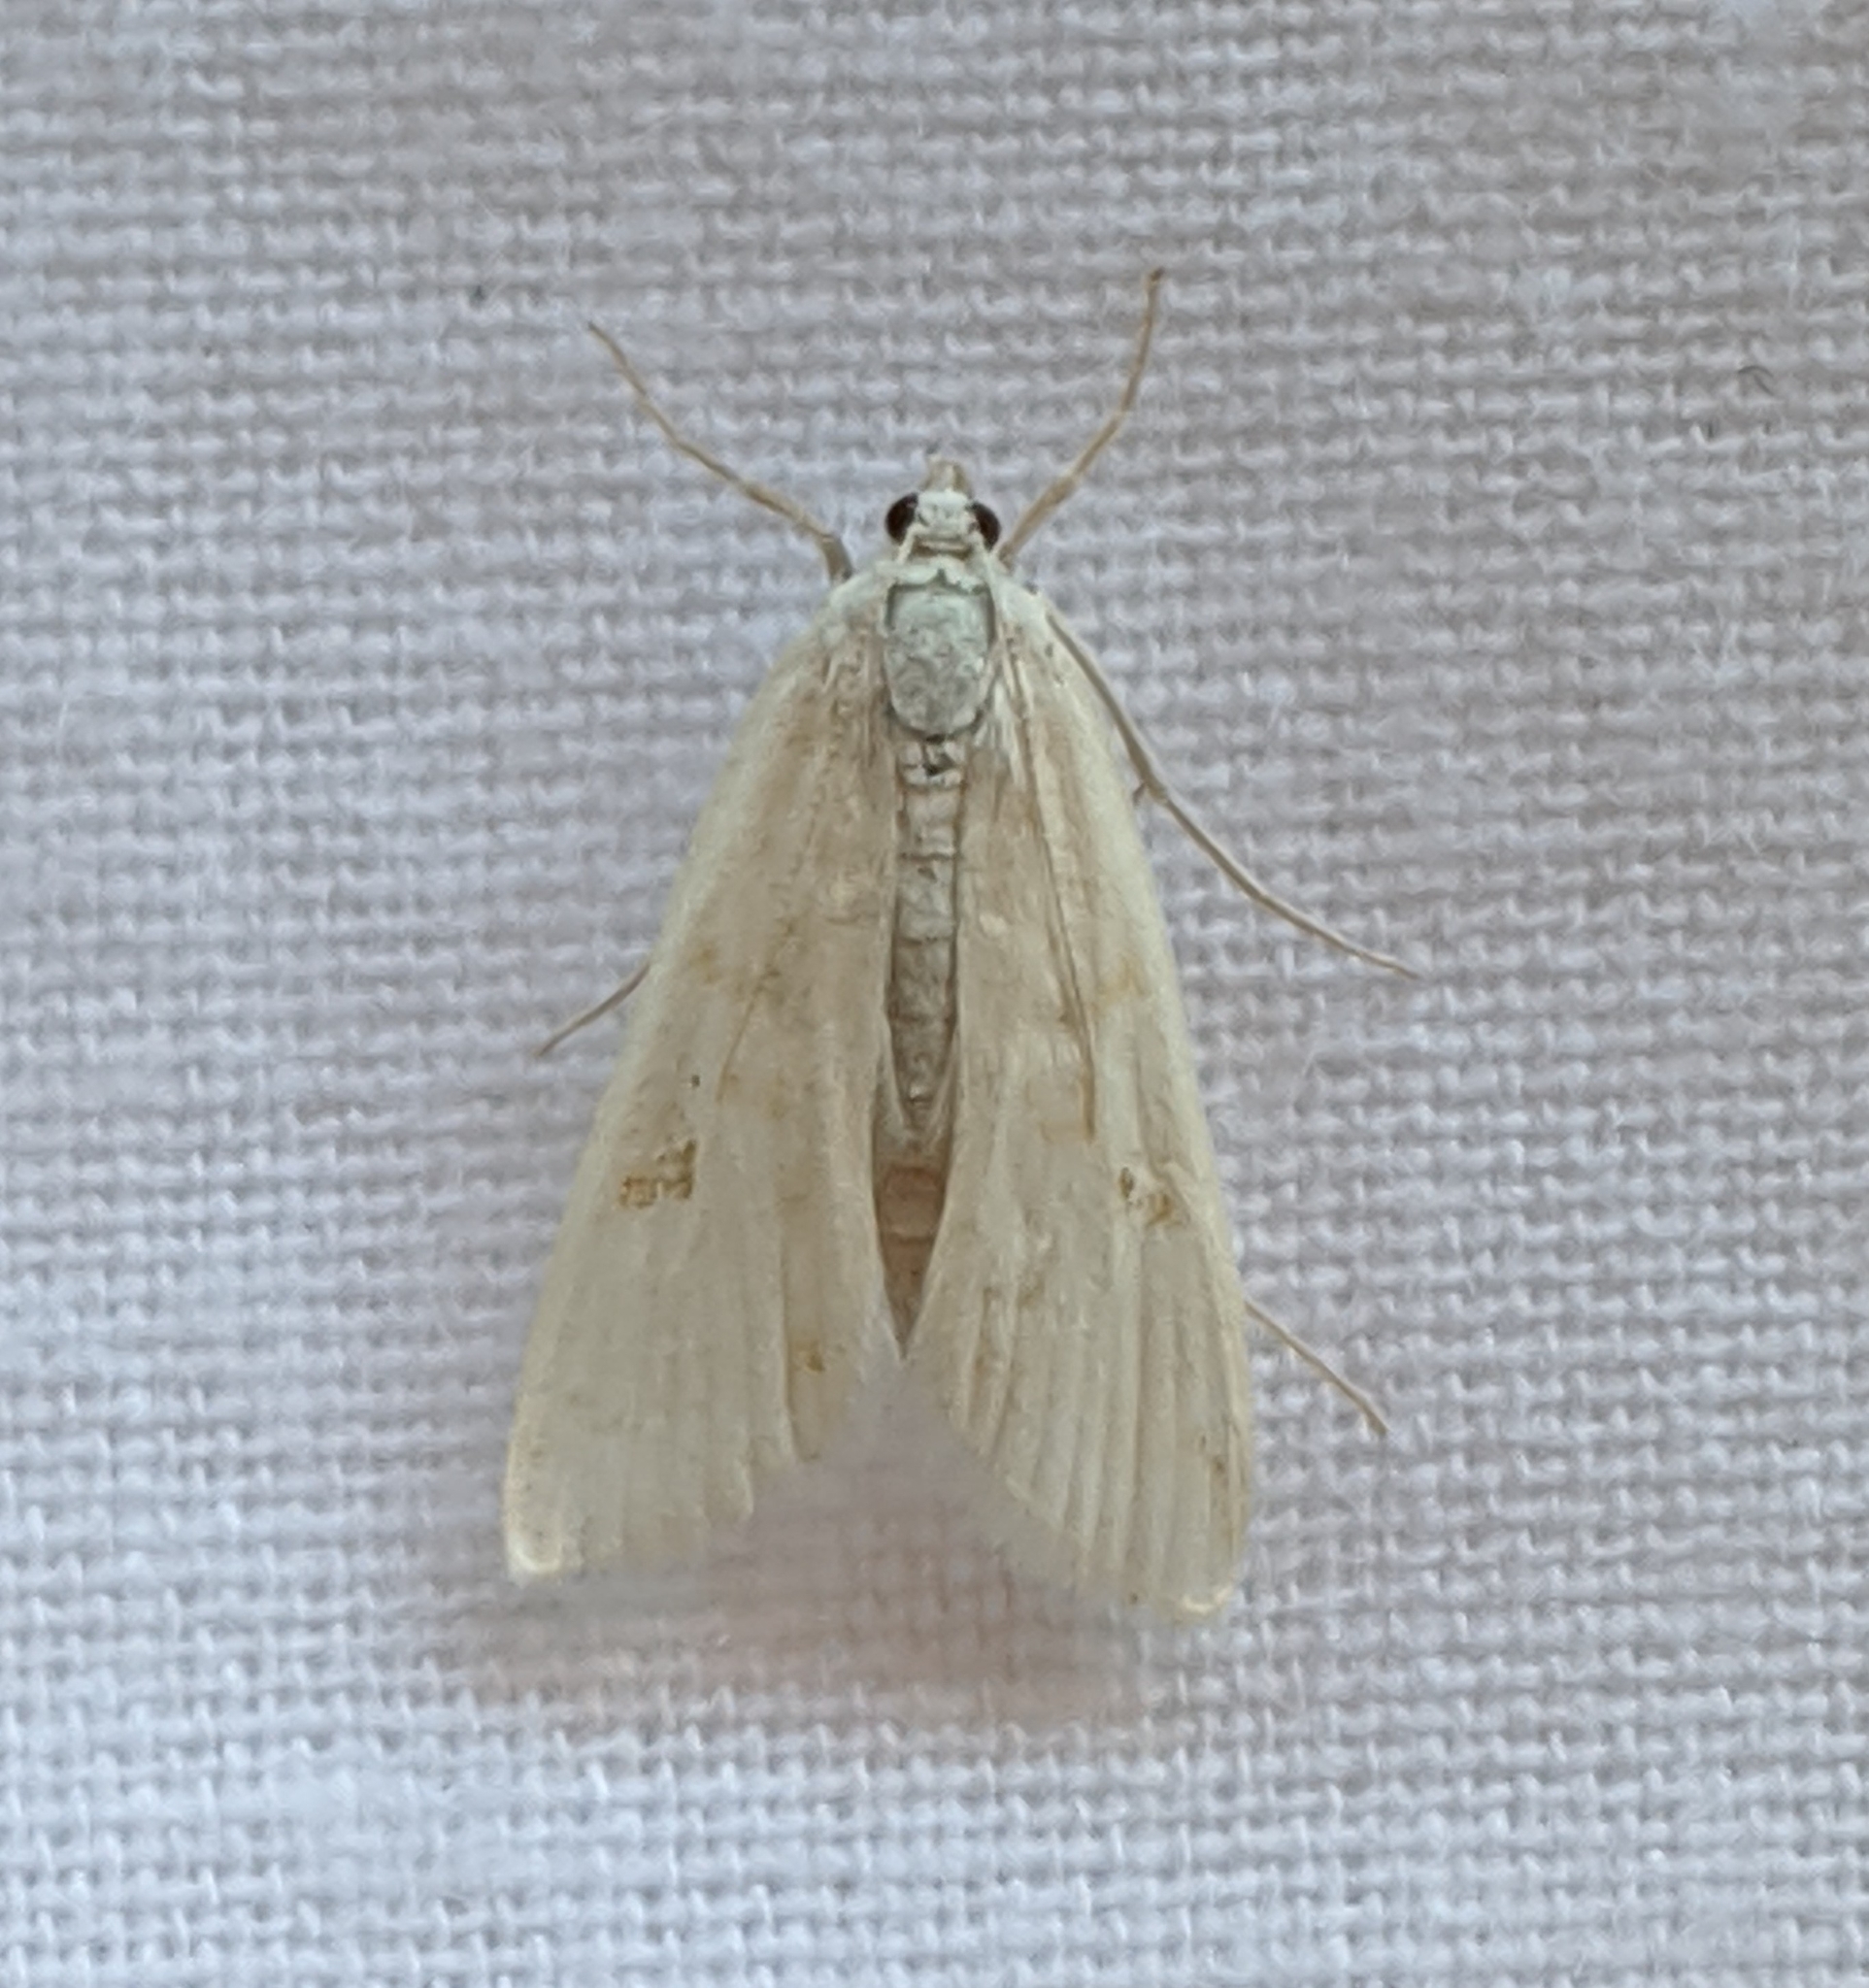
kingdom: Animalia
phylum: Arthropoda
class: Insecta
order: Lepidoptera
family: Crambidae
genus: Parapoynx
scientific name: Parapoynx allionealis
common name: Bladderwort casemaker
